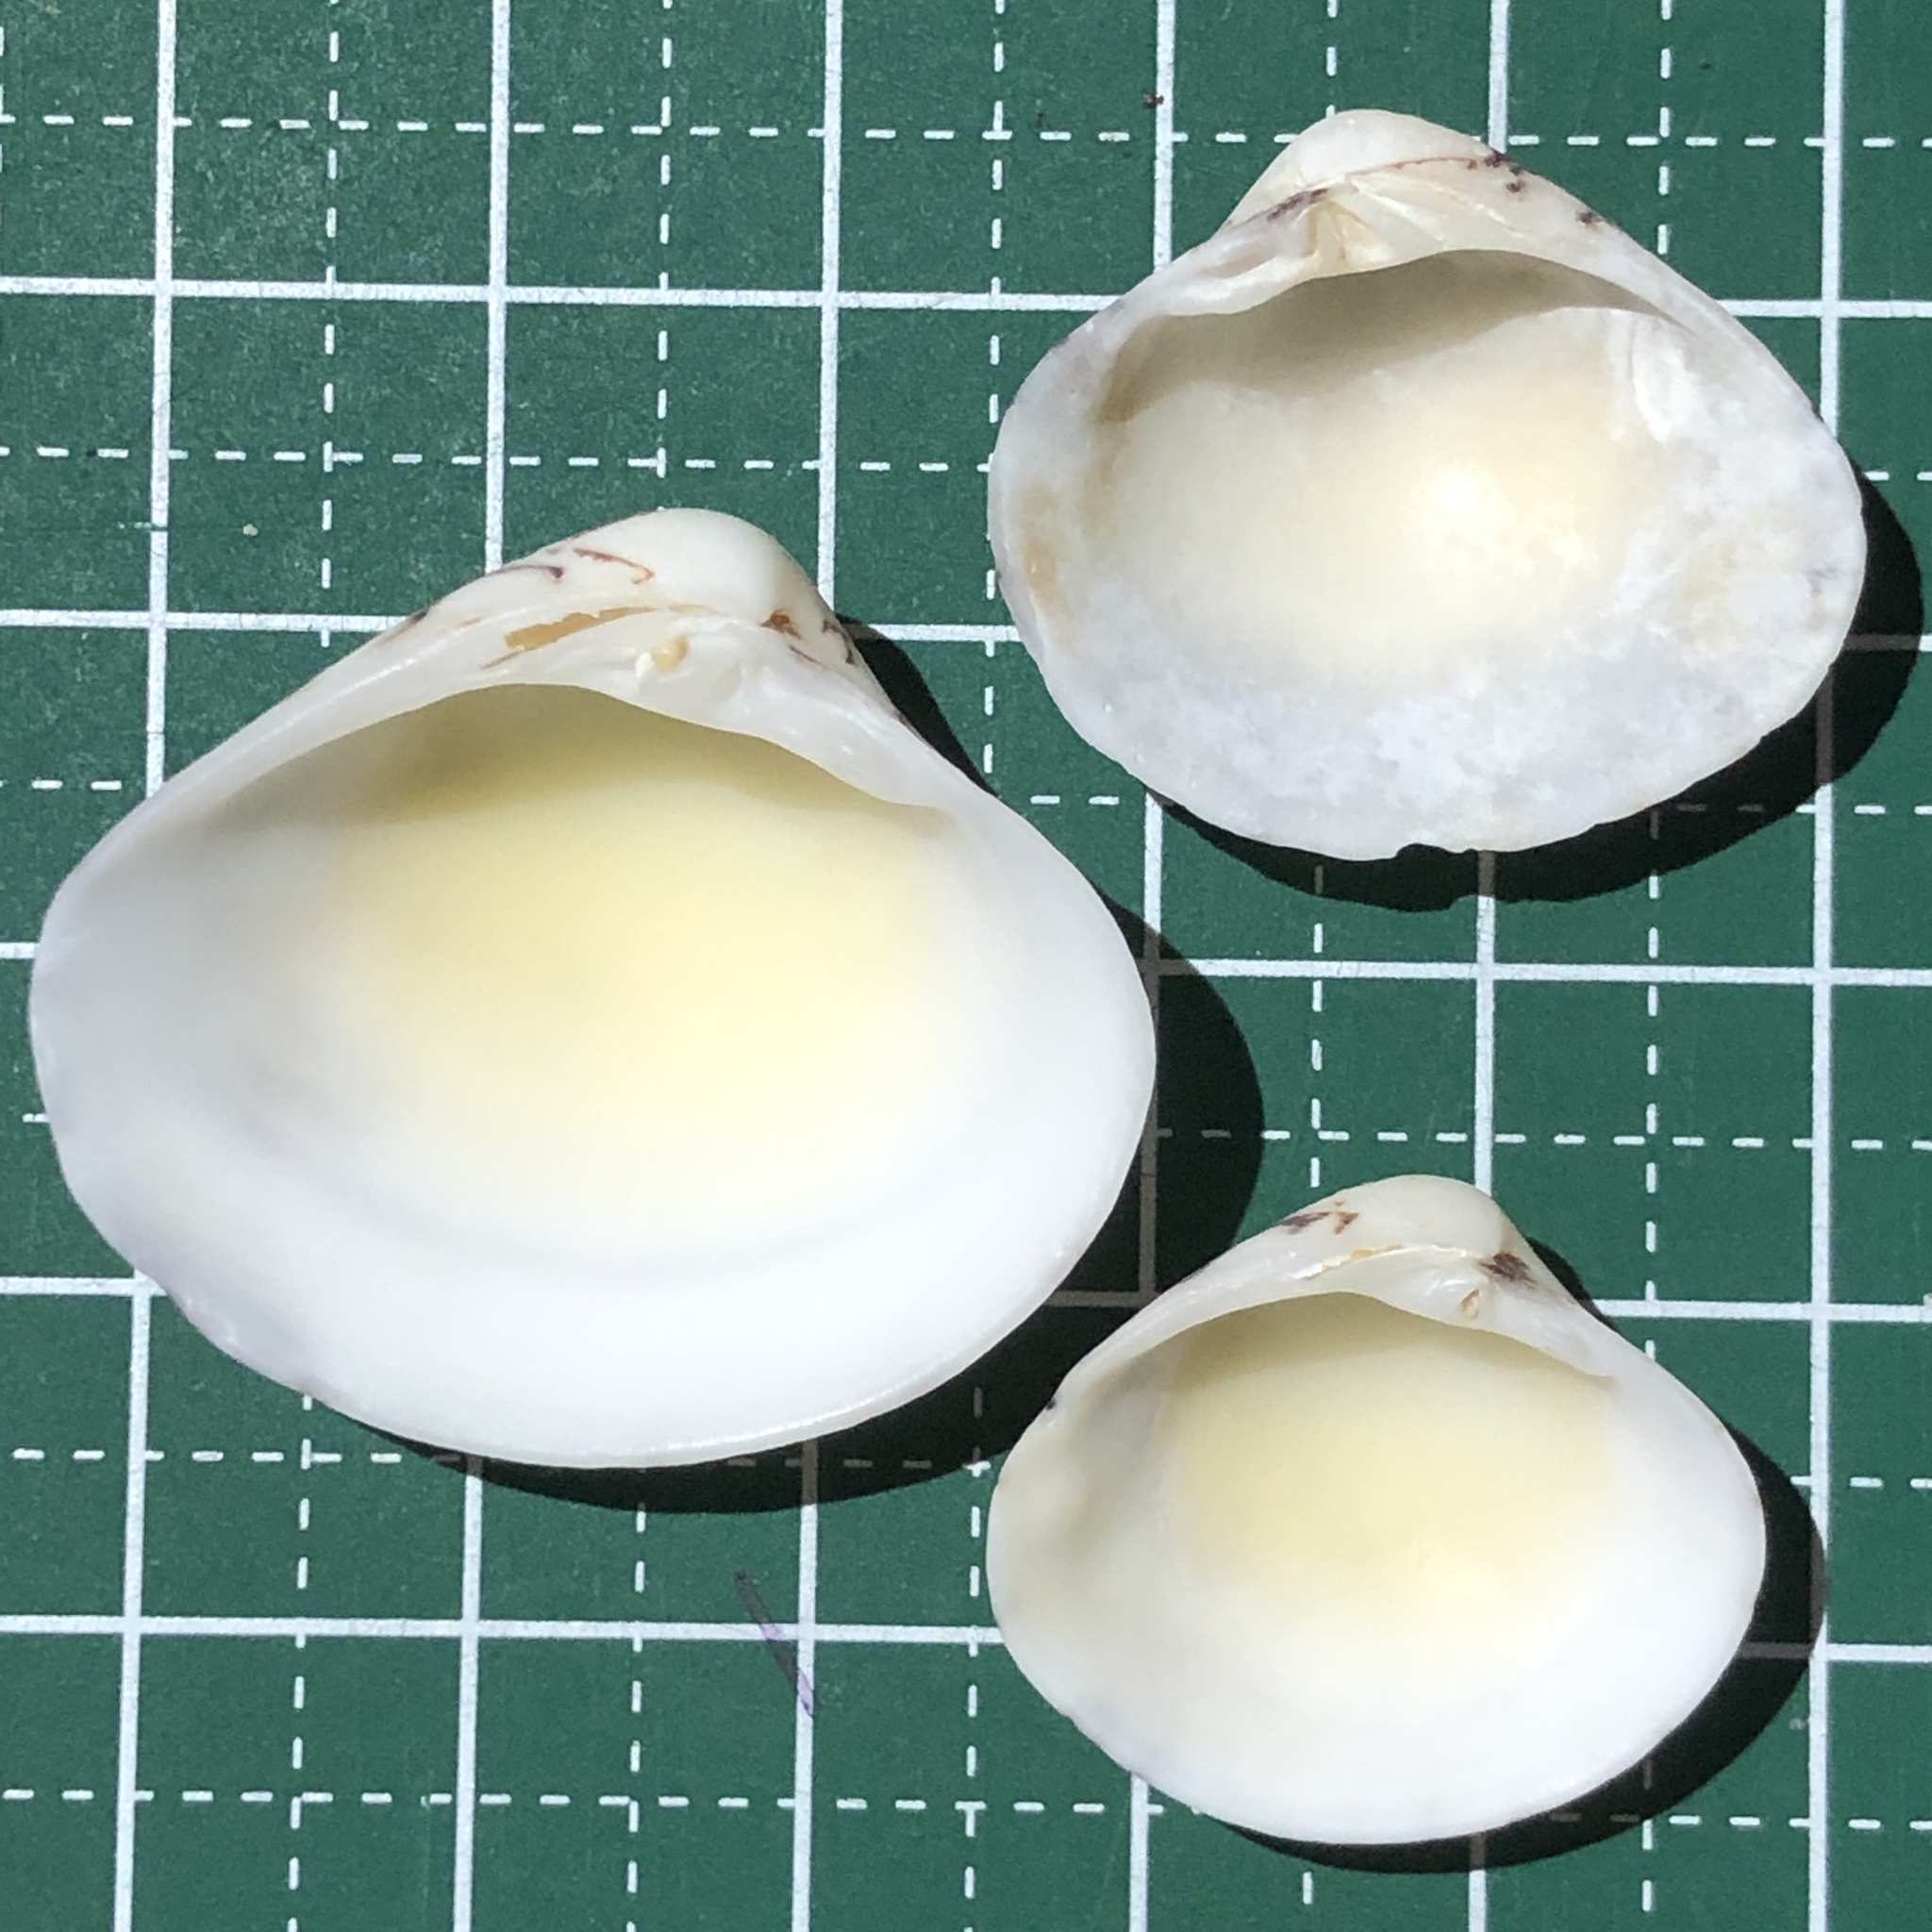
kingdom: Animalia
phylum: Mollusca
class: Bivalvia
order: Venerida
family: Veneridae
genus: Lioconcha
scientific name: Lioconcha fastigiata
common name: Clam
